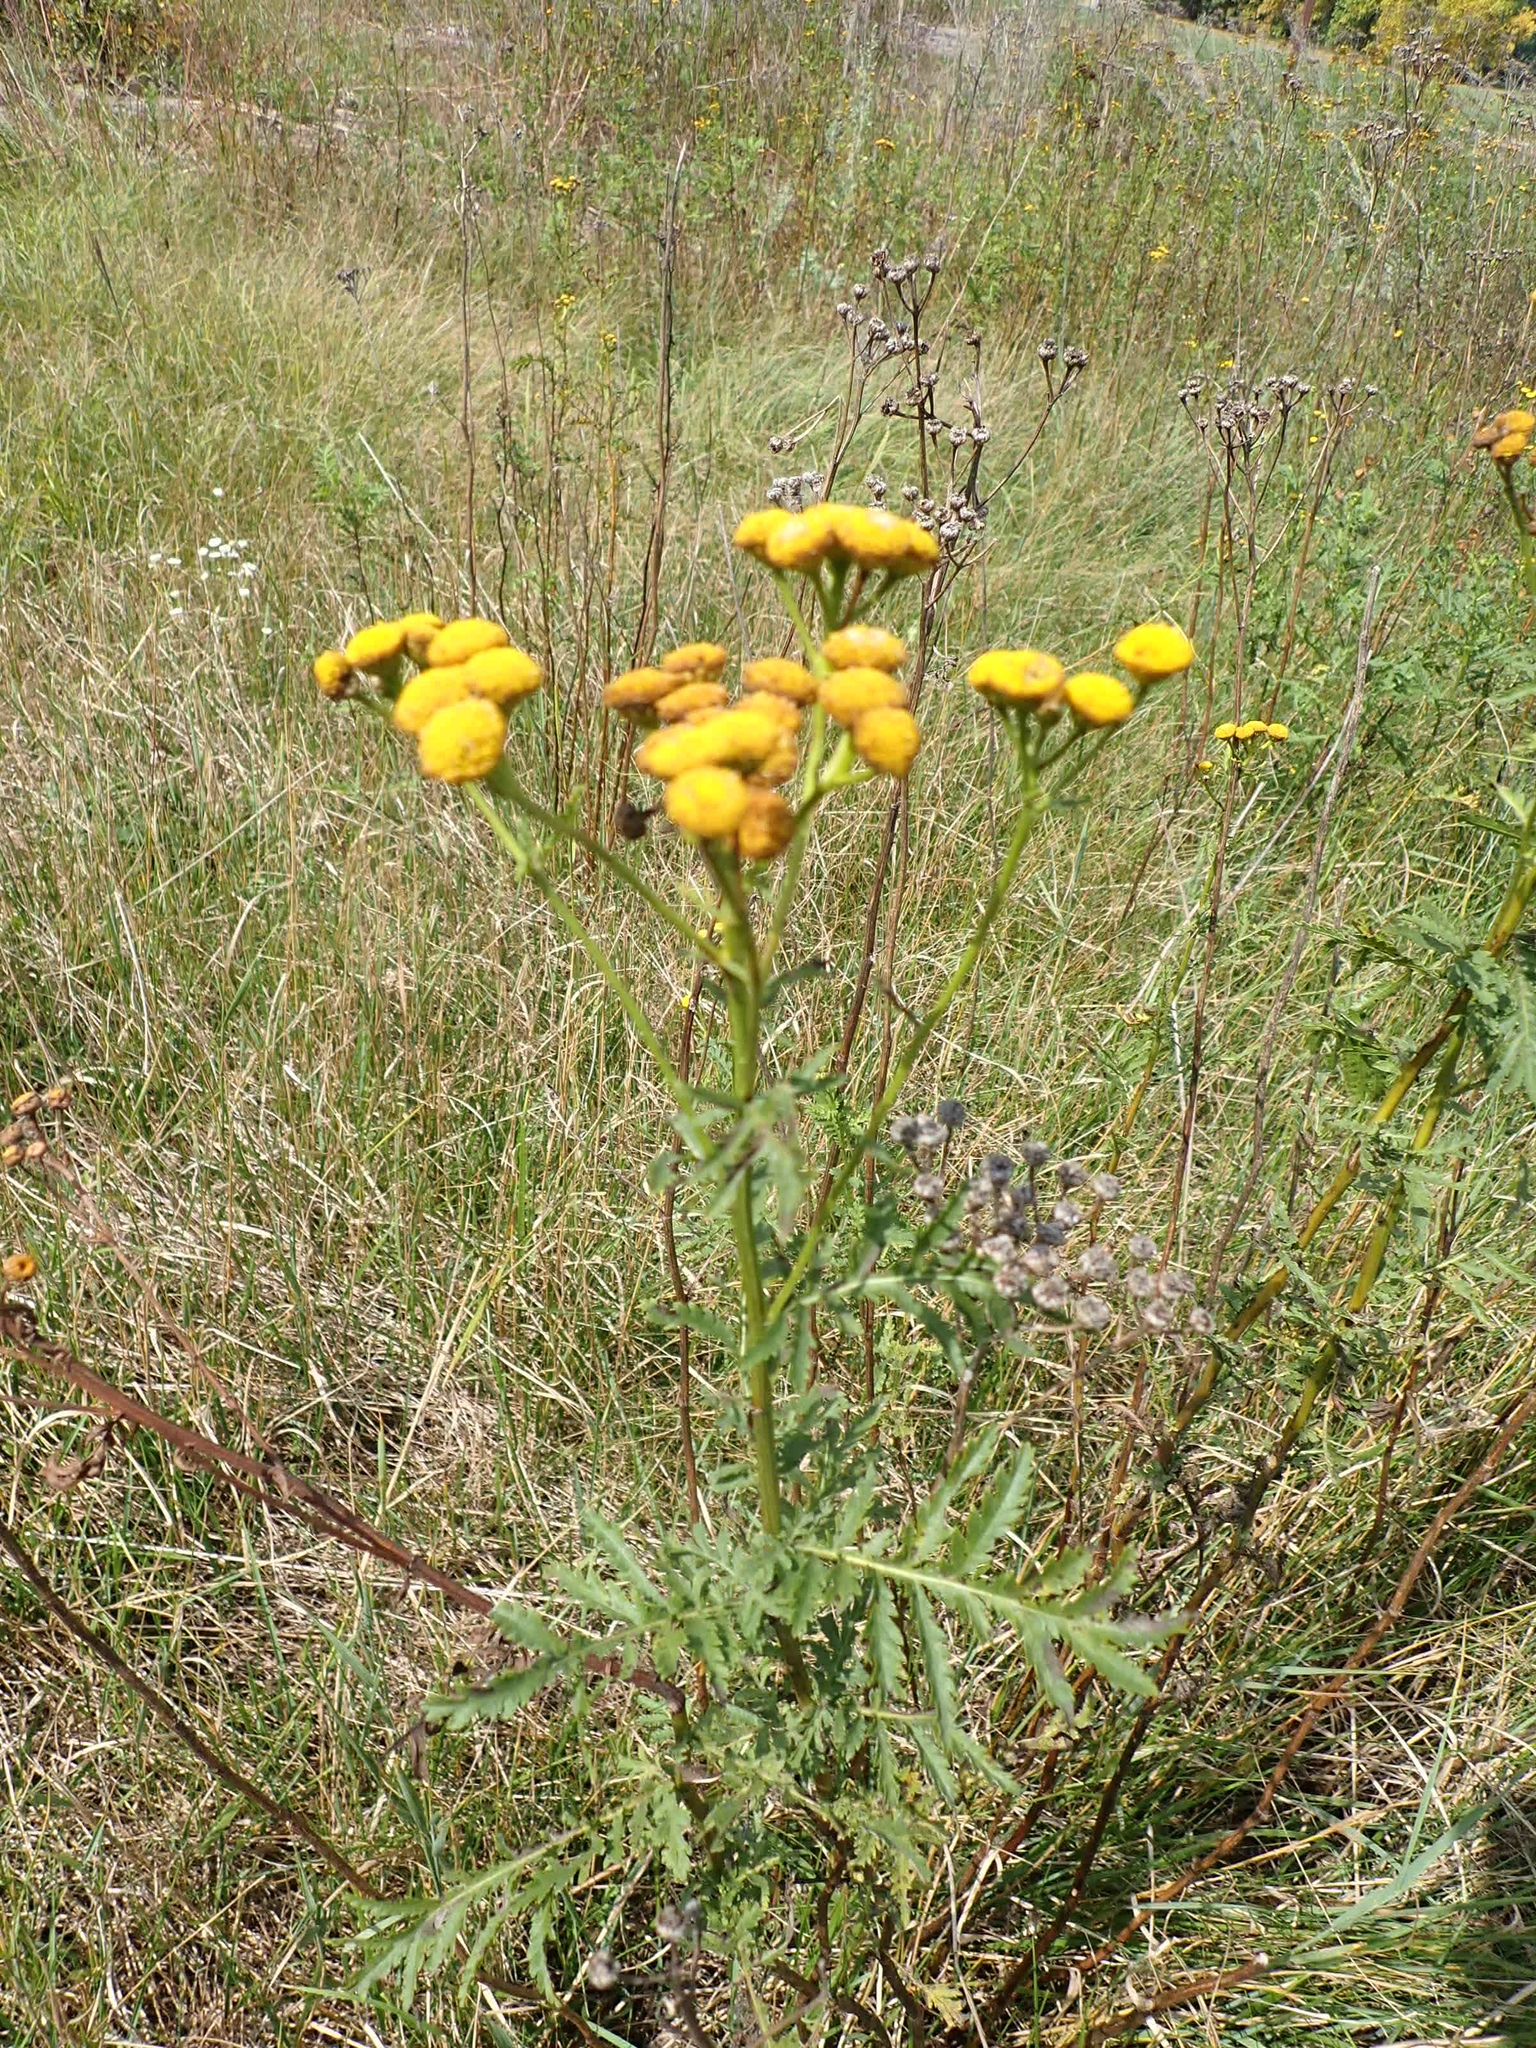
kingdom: Plantae
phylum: Tracheophyta
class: Magnoliopsida
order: Asterales
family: Asteraceae
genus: Tanacetum
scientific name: Tanacetum vulgare
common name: Common tansy
